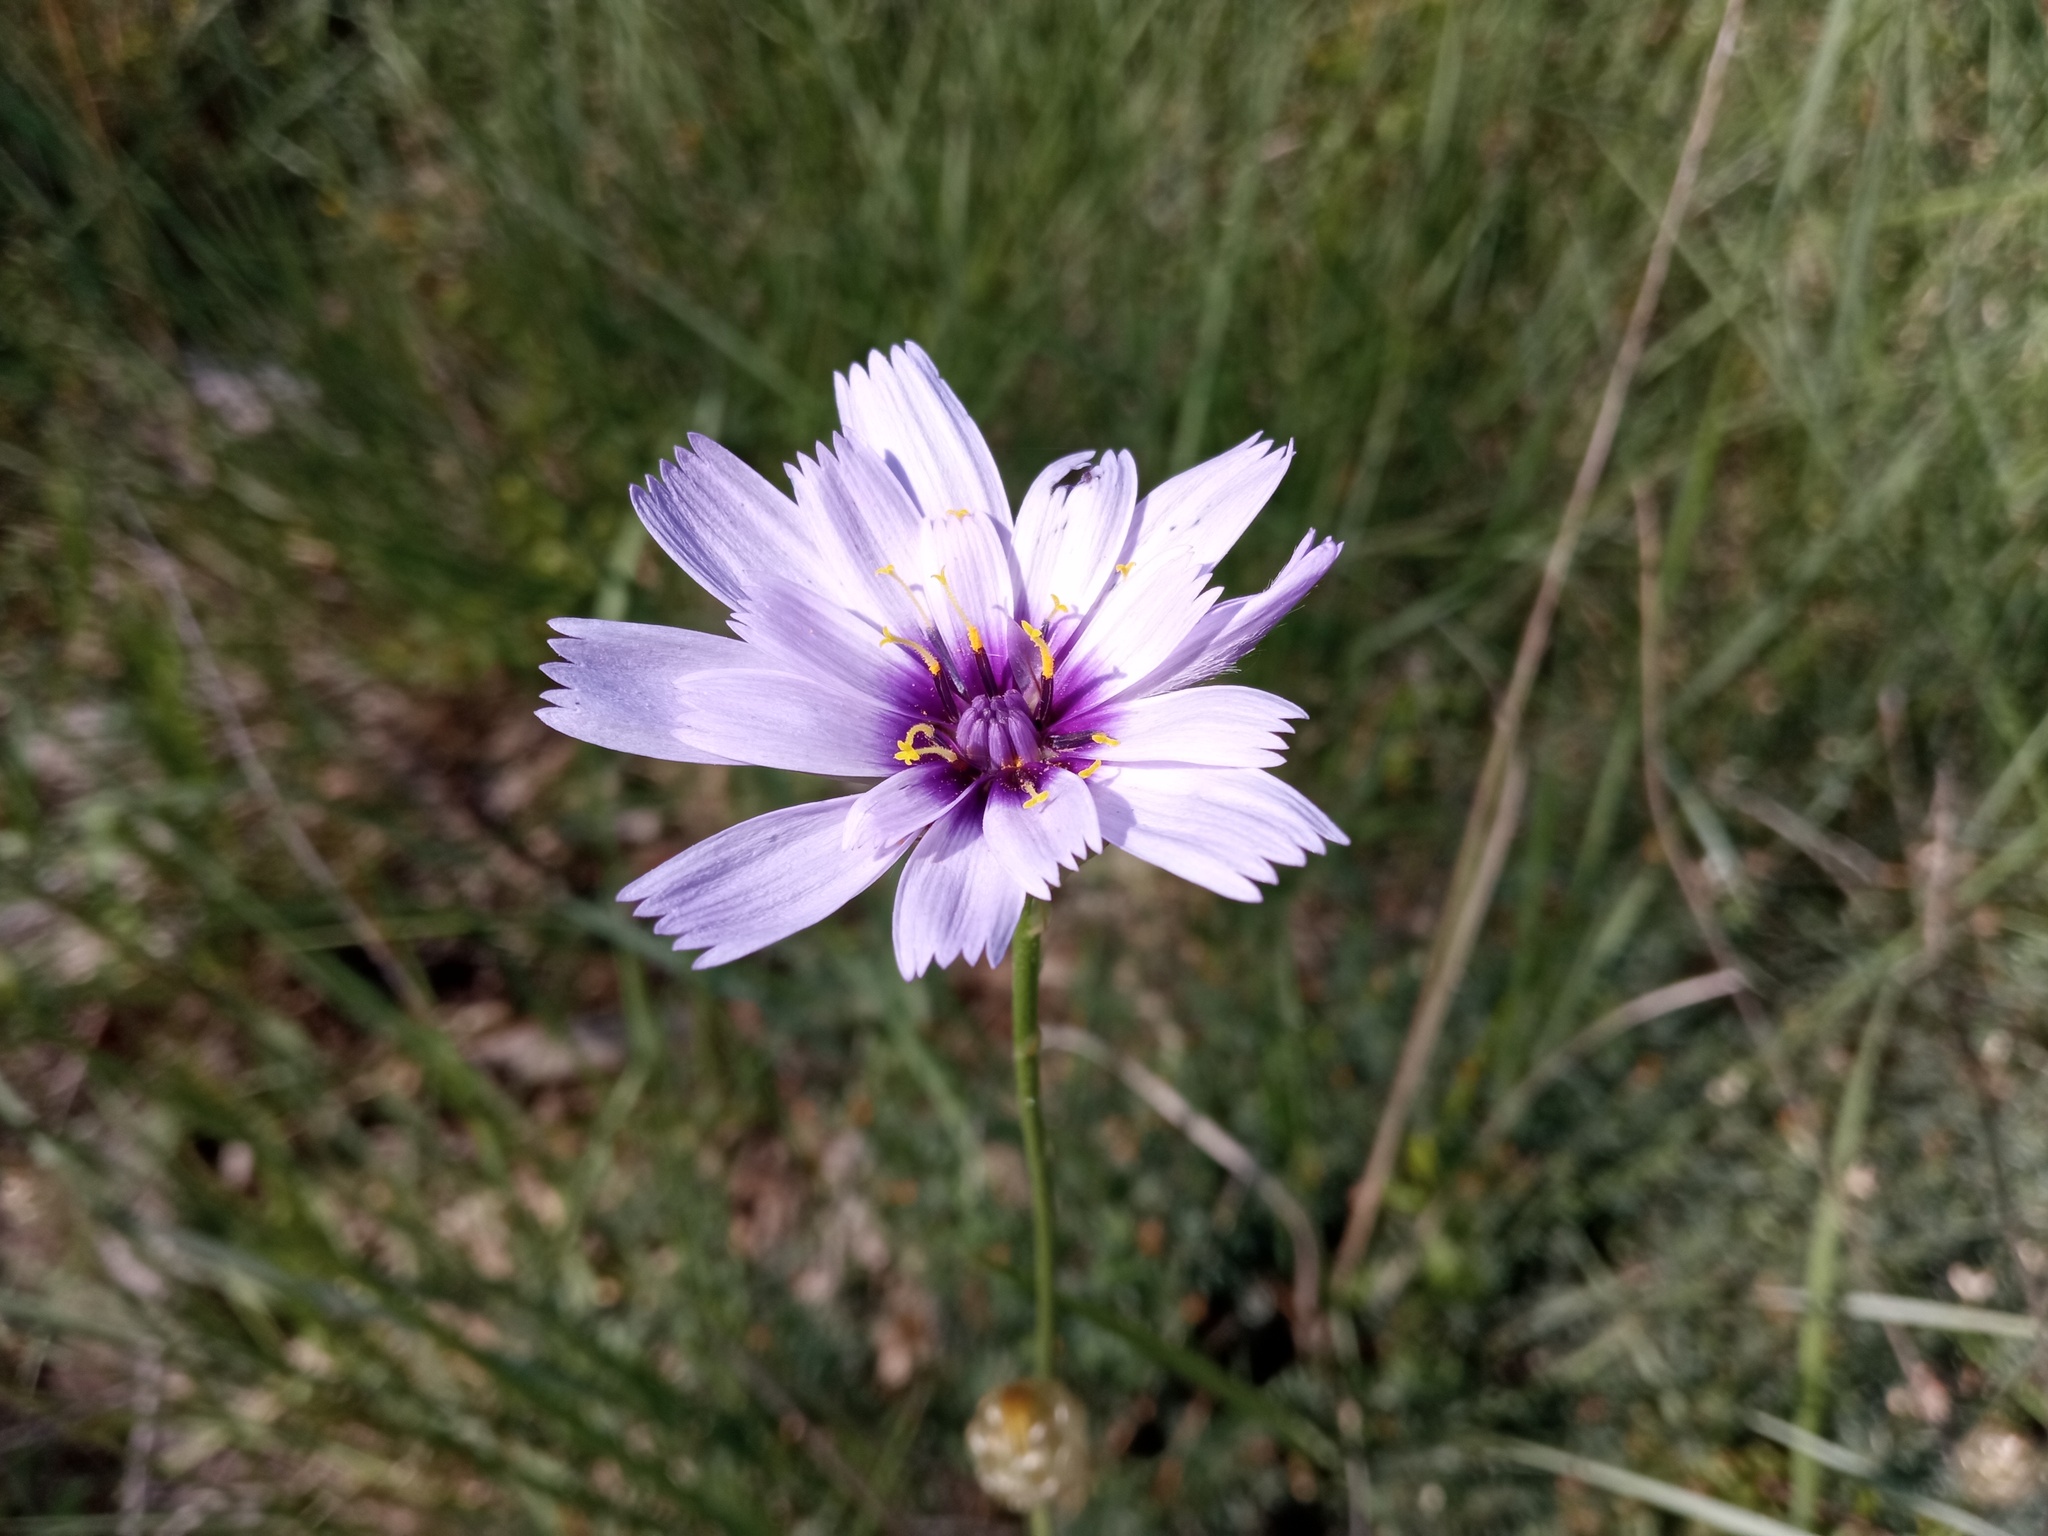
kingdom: Plantae
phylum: Tracheophyta
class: Magnoliopsida
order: Asterales
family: Asteraceae
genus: Catananche
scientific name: Catananche caerulea
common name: Blue cupidone
